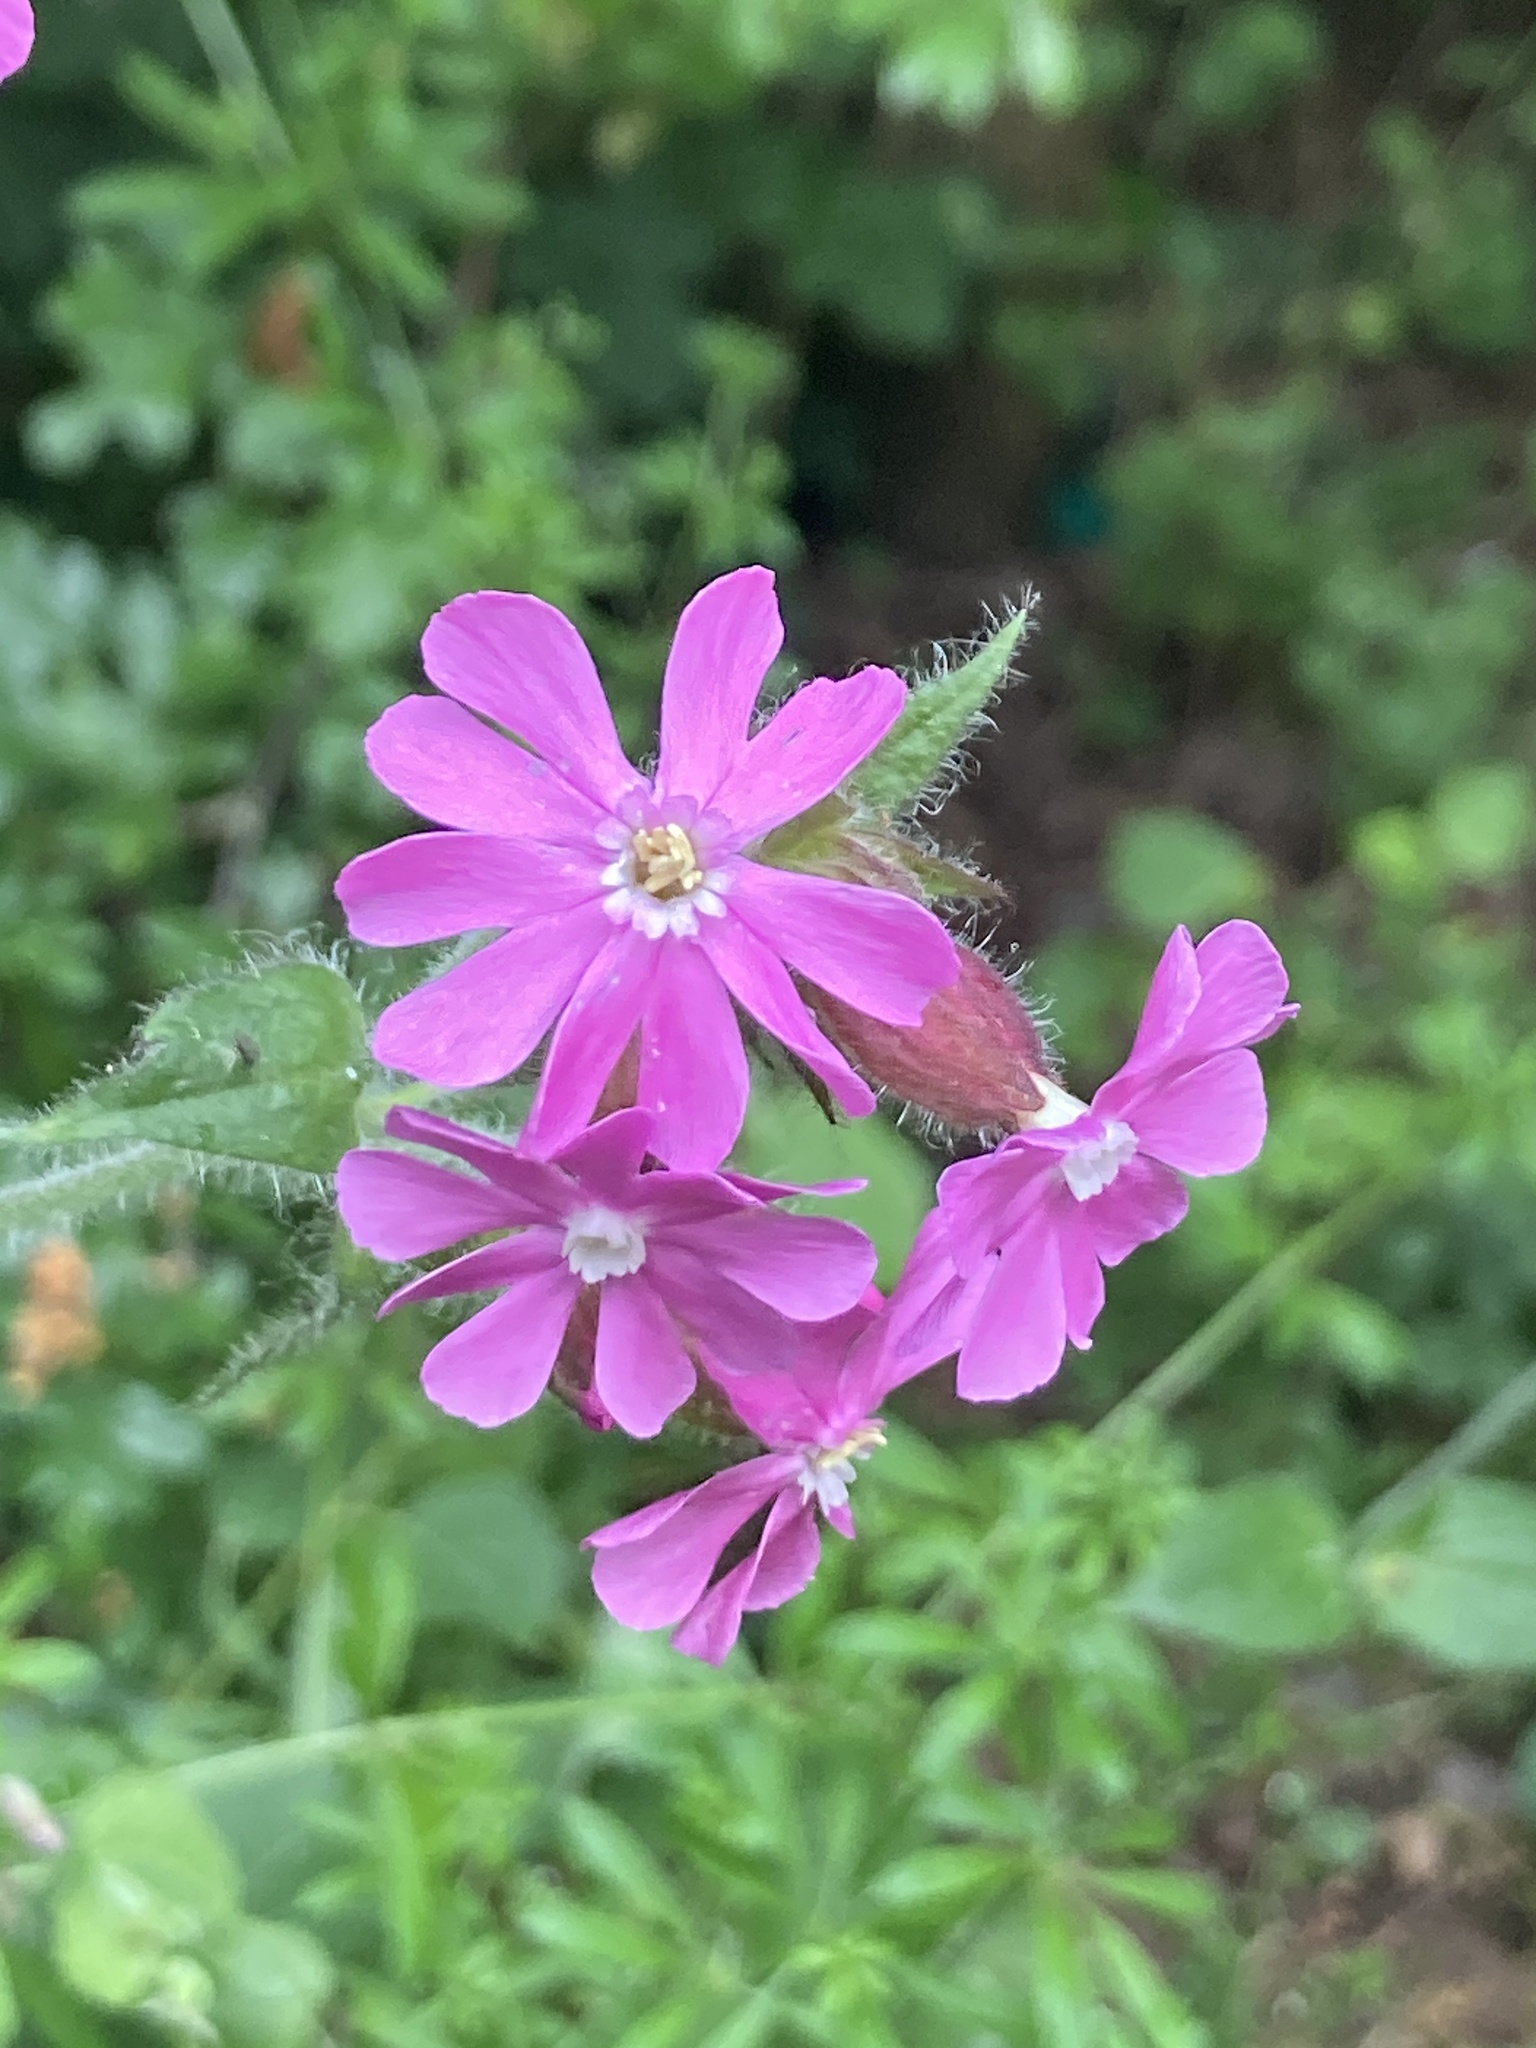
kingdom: Plantae
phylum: Tracheophyta
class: Magnoliopsida
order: Caryophyllales
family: Caryophyllaceae
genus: Silene
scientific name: Silene dioica
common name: Red campion
